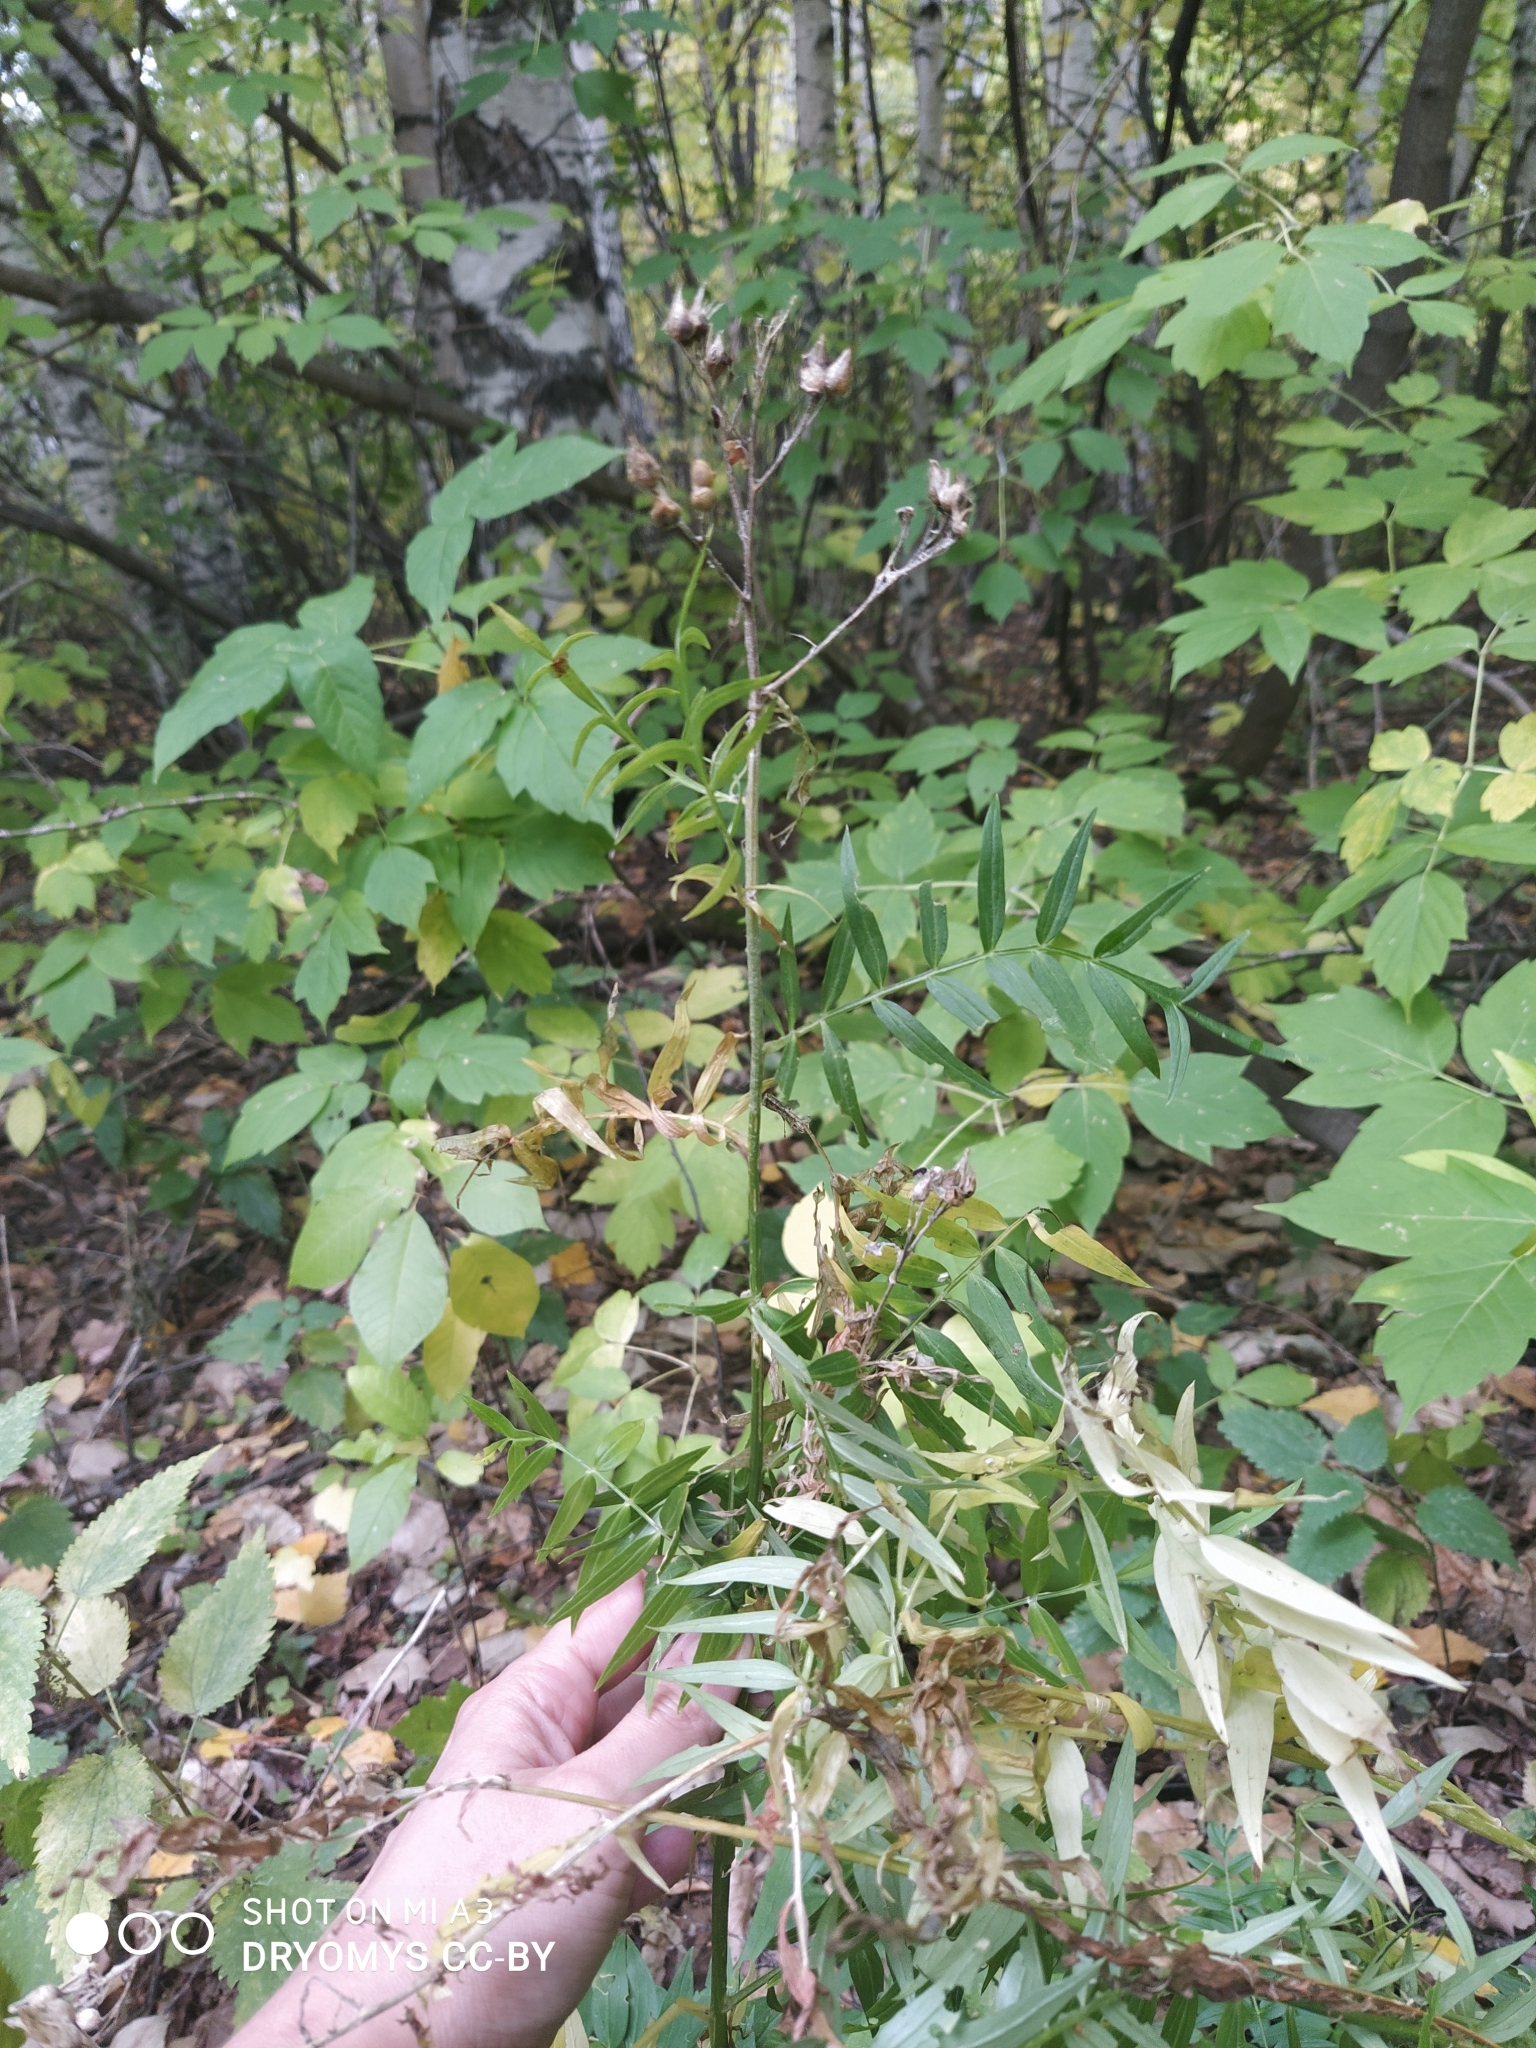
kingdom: Plantae
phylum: Tracheophyta
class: Magnoliopsida
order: Ericales
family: Polemoniaceae
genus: Polemonium
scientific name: Polemonium caeruleum
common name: Jacob's-ladder
